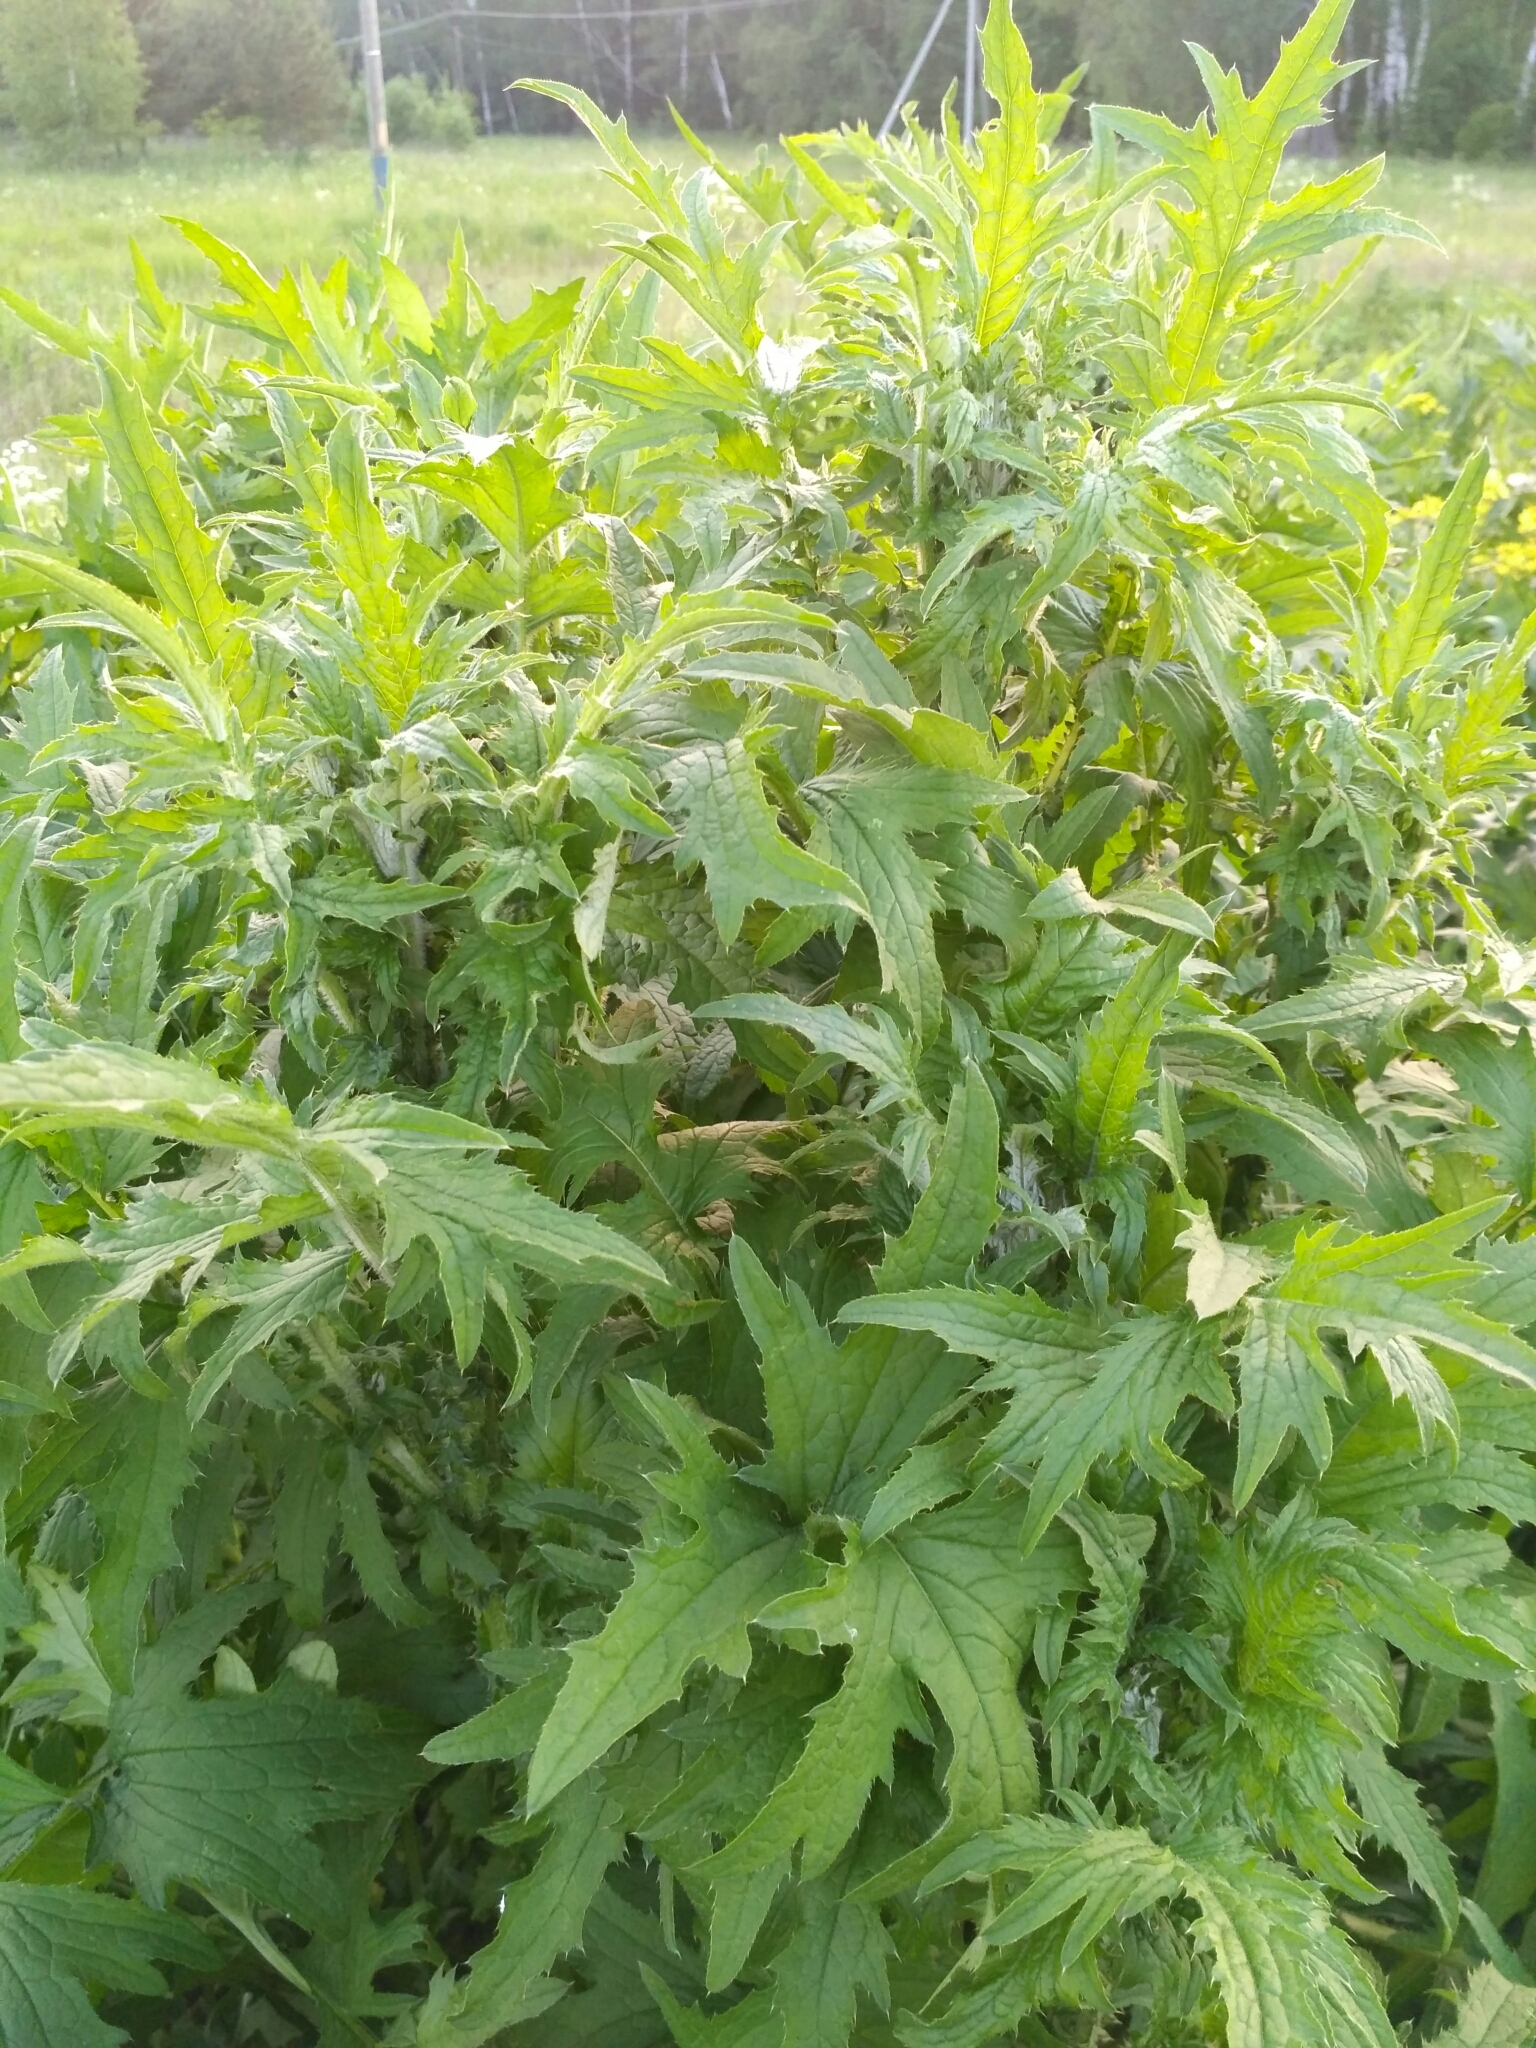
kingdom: Plantae
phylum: Tracheophyta
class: Magnoliopsida
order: Asterales
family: Asteraceae
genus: Carduus
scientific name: Carduus crispus
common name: Welted thistle
